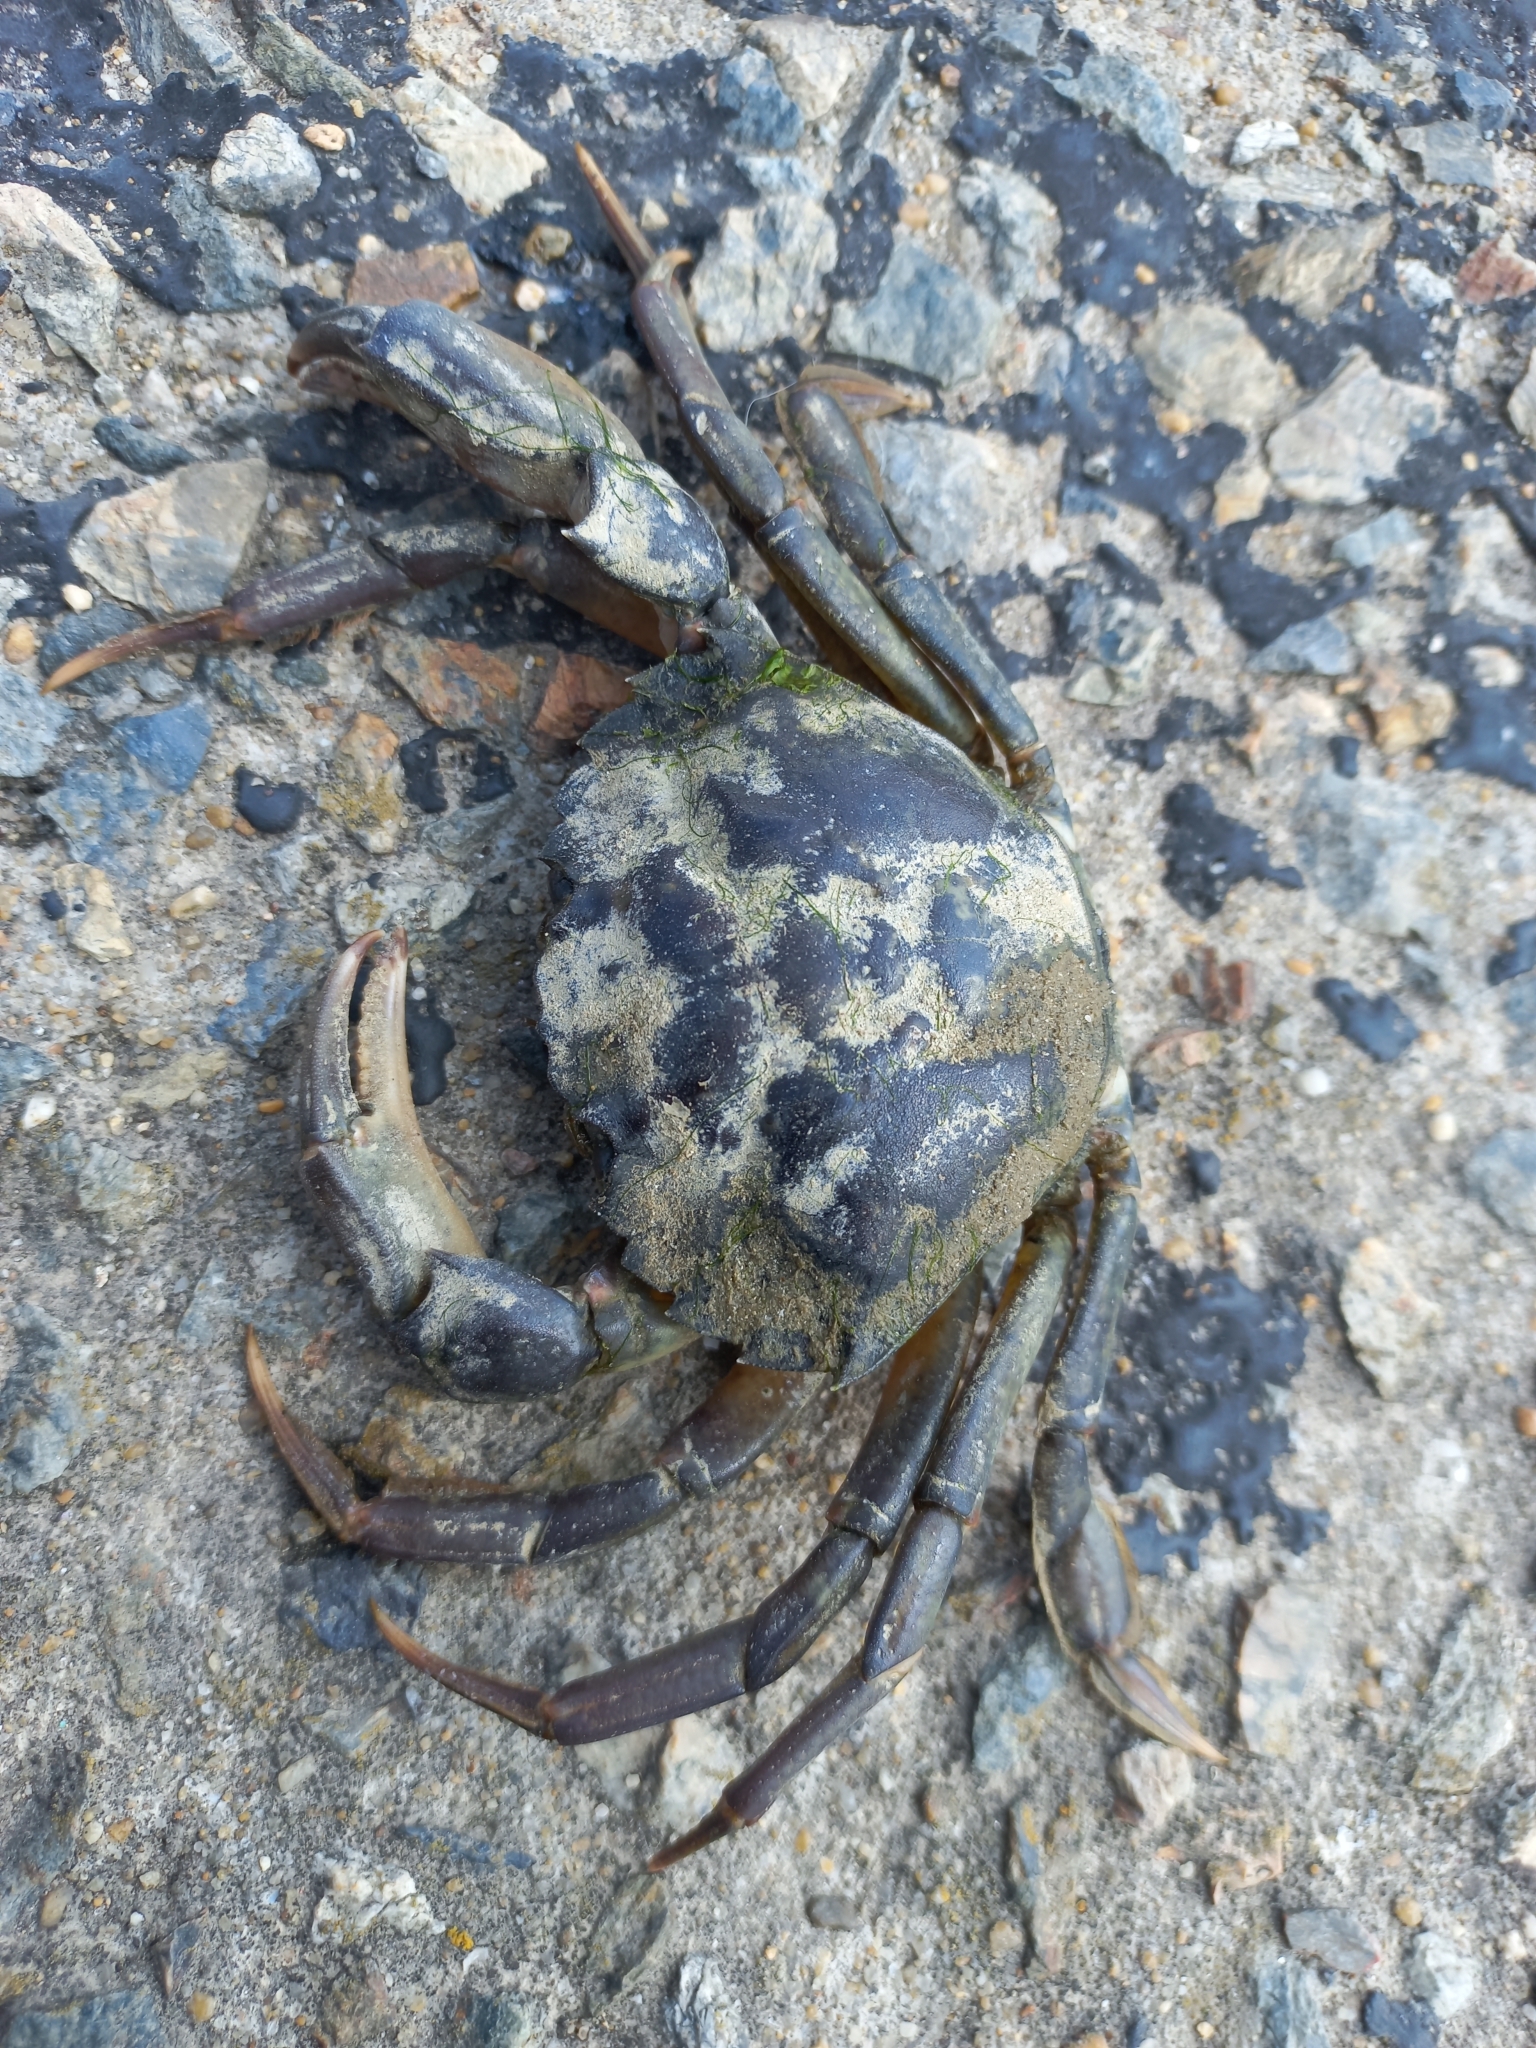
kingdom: Animalia
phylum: Arthropoda
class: Malacostraca
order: Decapoda
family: Carcinidae
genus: Carcinus
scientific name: Carcinus maenas
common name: European green crab
